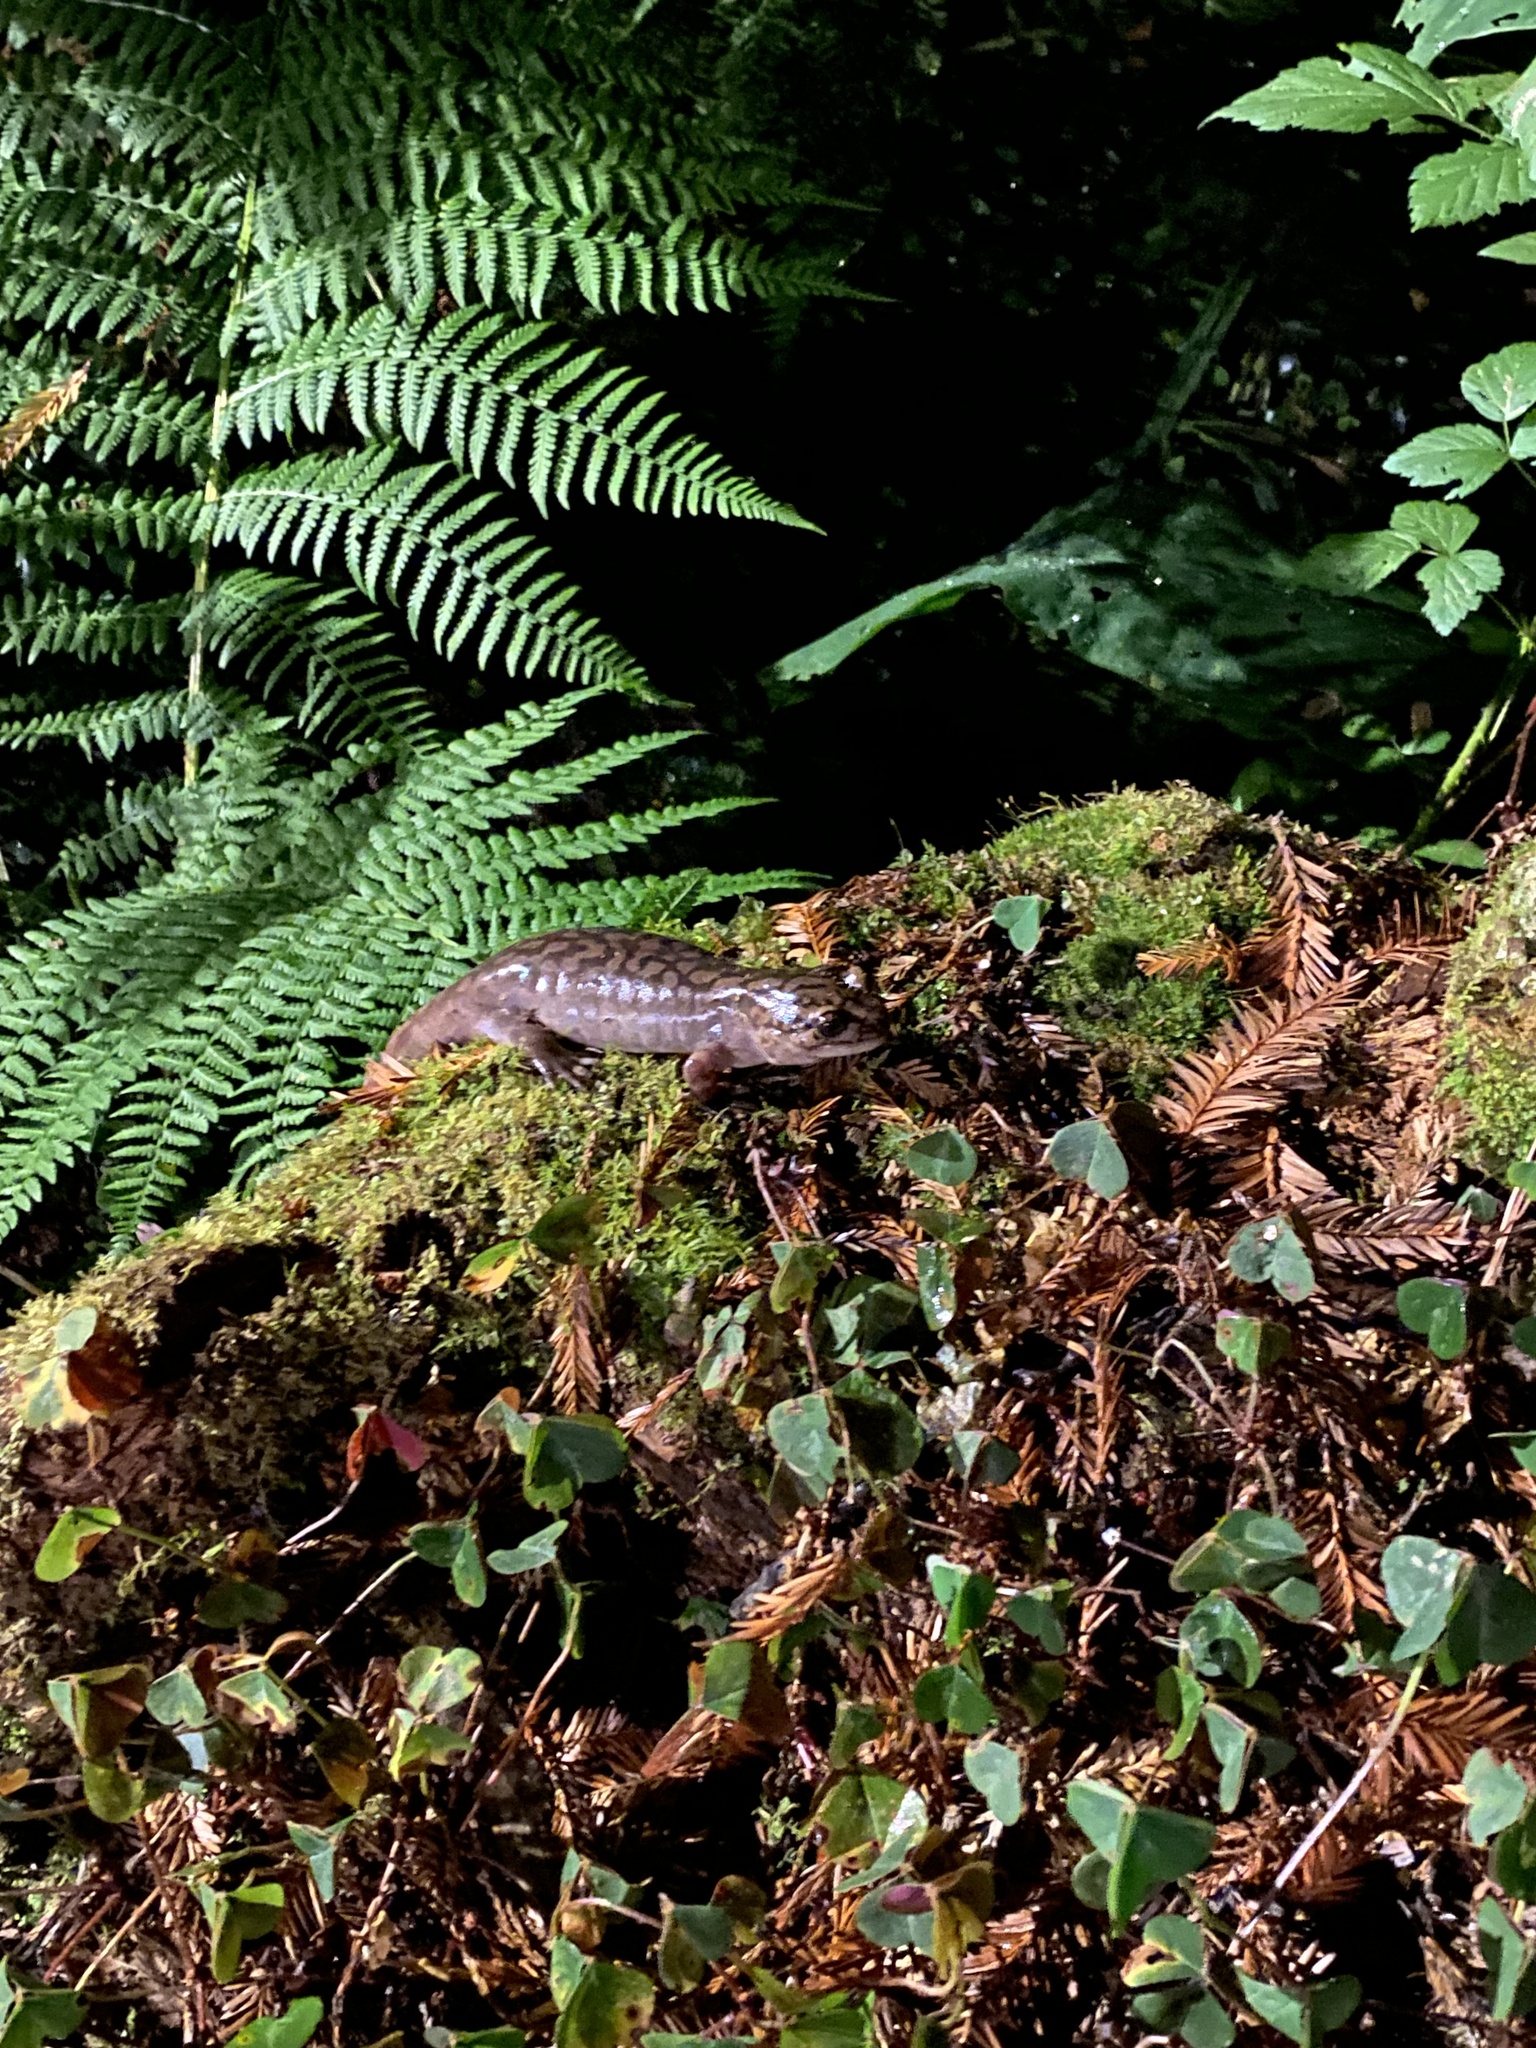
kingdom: Animalia
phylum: Chordata
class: Amphibia
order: Caudata
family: Ambystomatidae
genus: Dicamptodon
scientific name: Dicamptodon tenebrosus
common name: Coastal giant salamander
